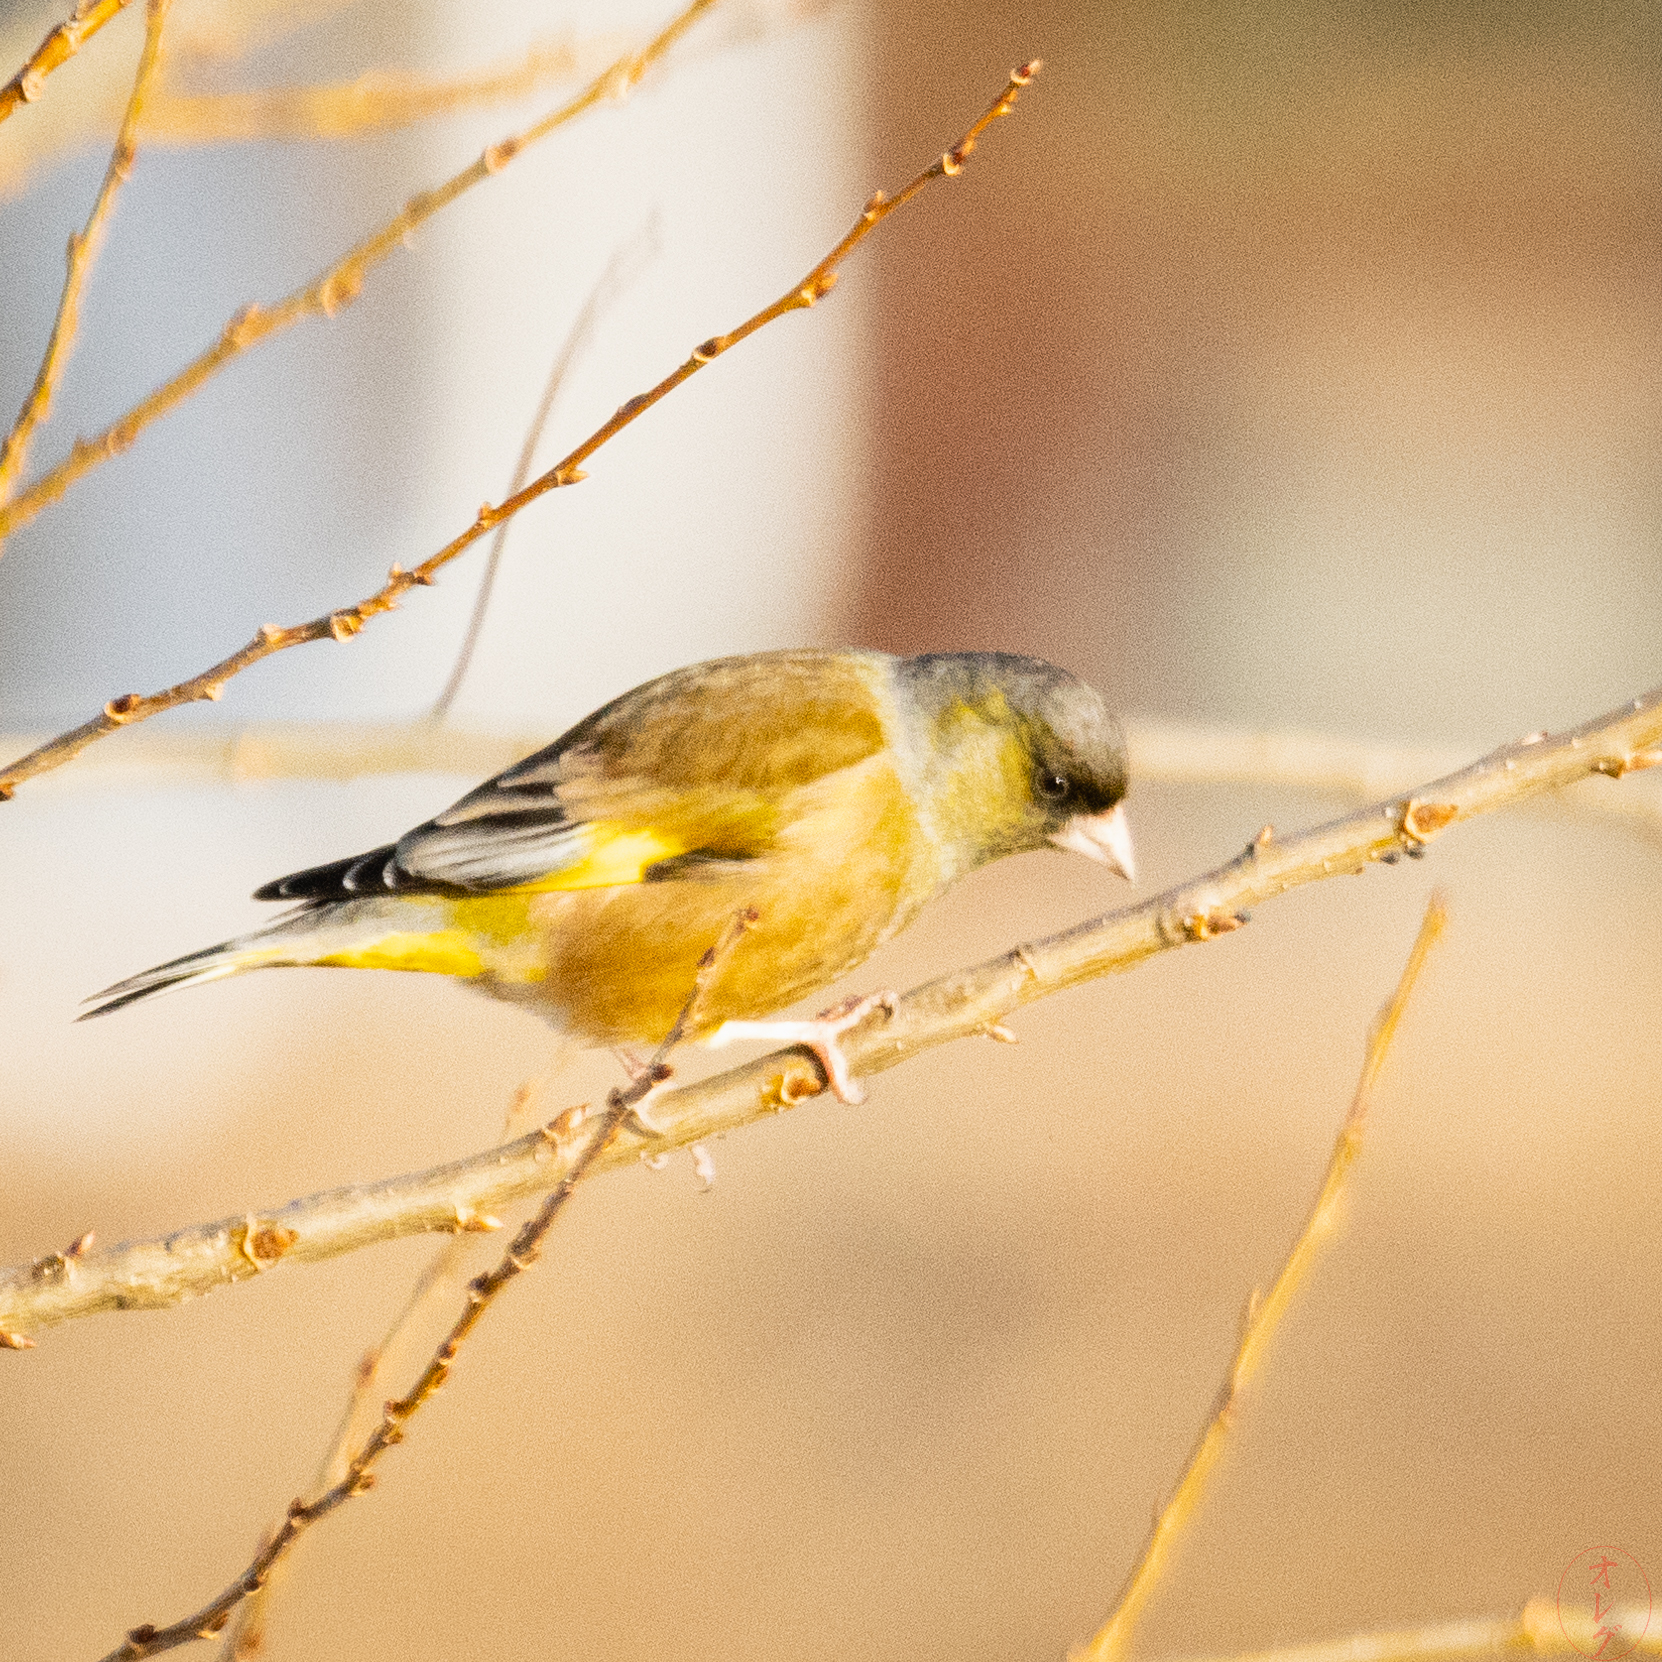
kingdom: Plantae
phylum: Tracheophyta
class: Liliopsida
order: Poales
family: Poaceae
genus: Chloris
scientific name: Chloris sinica
